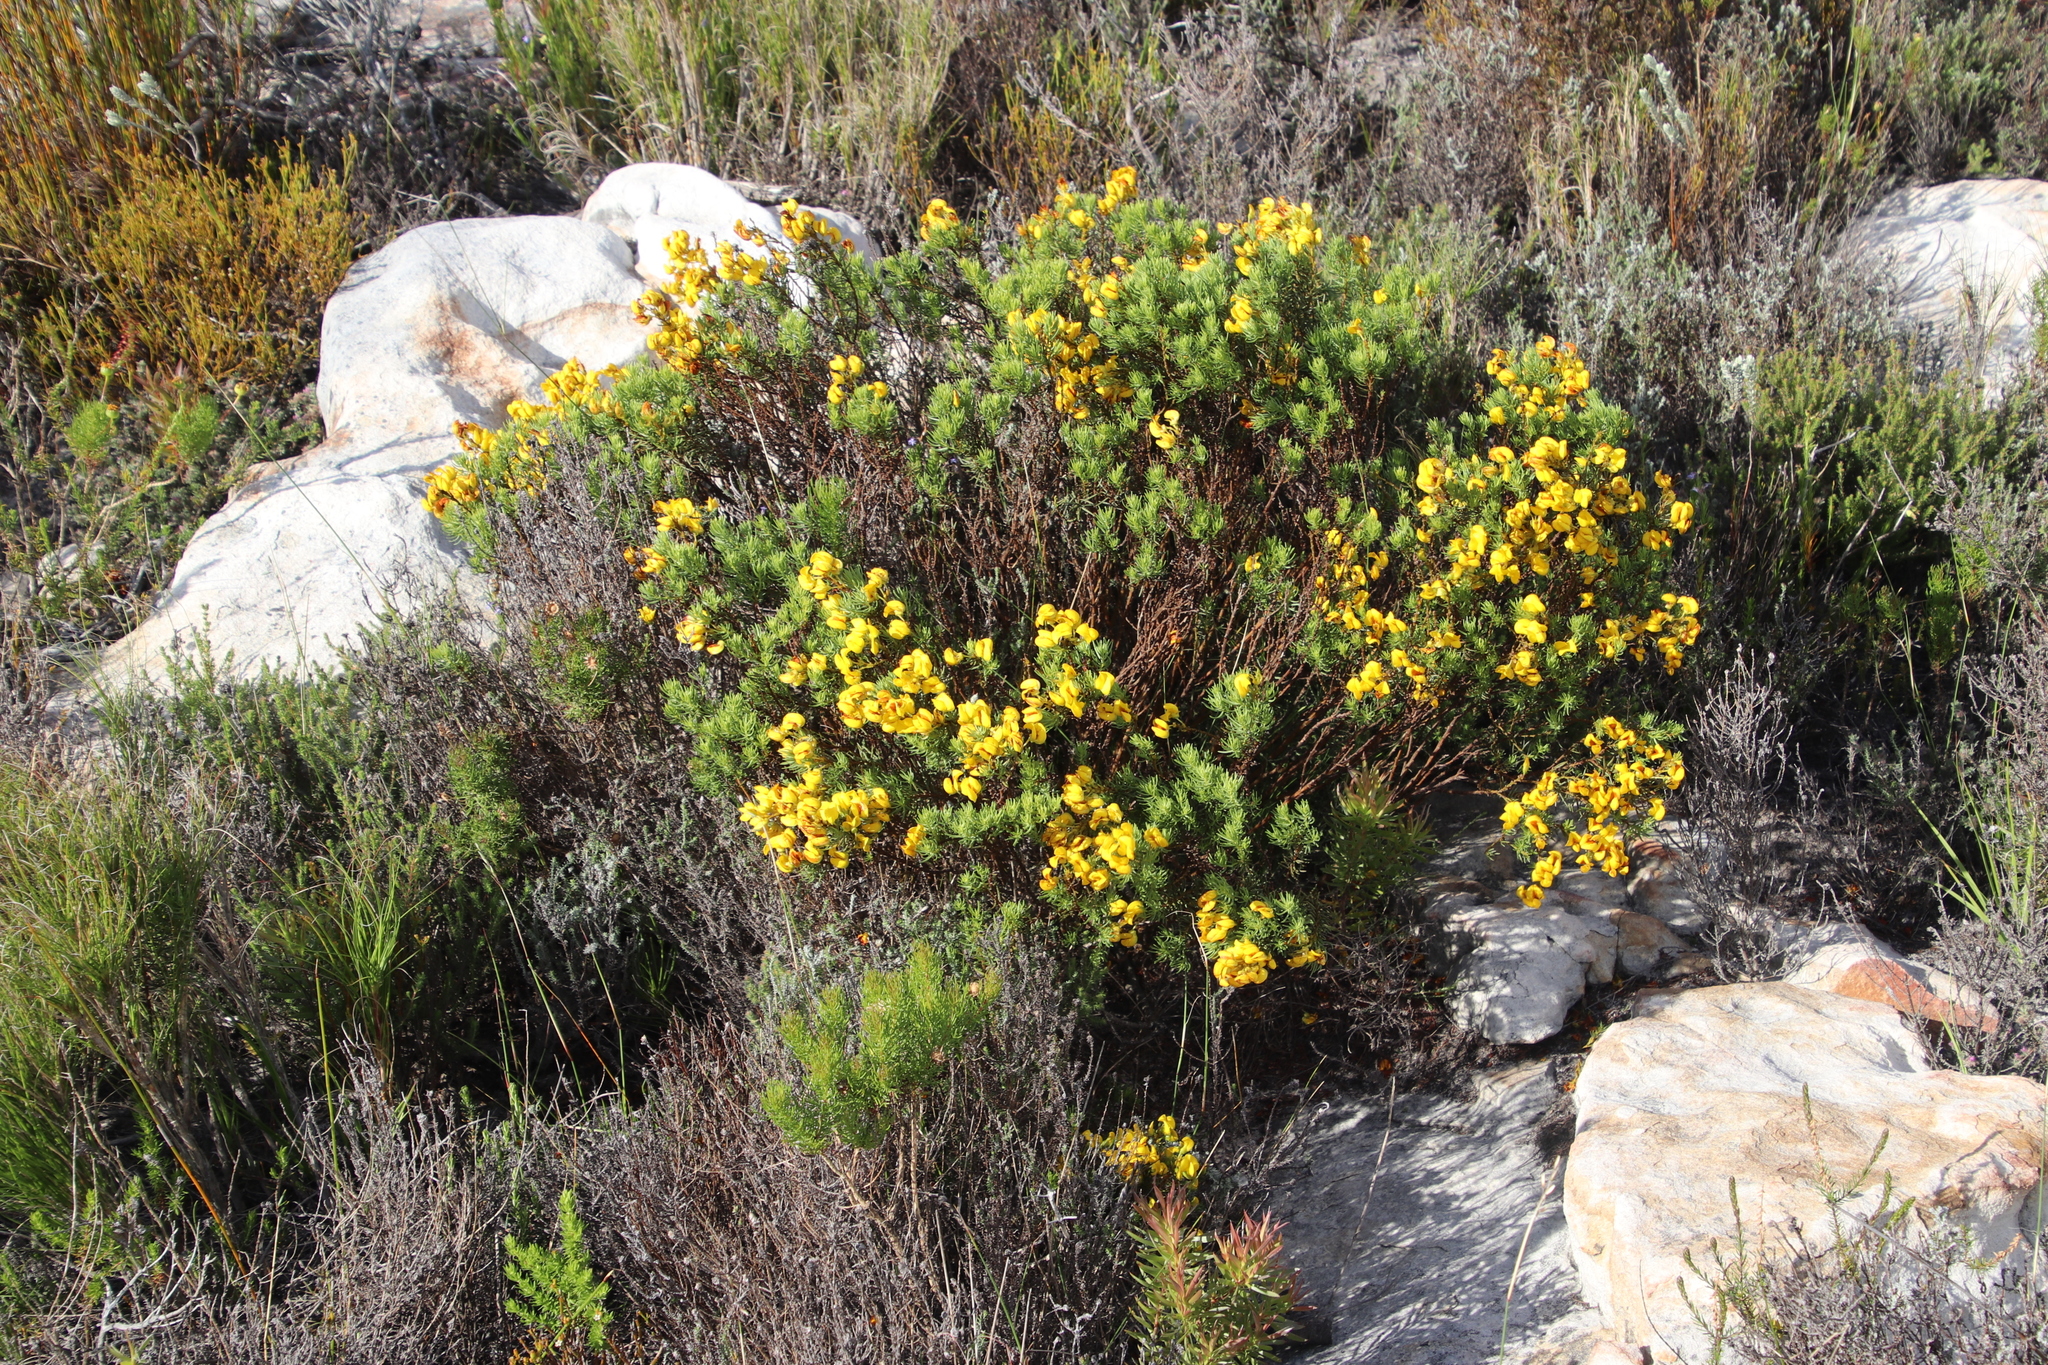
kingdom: Plantae
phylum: Tracheophyta
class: Magnoliopsida
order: Fabales
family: Fabaceae
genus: Cyclopia
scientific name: Cyclopia genistoides
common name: Honeybush tea
